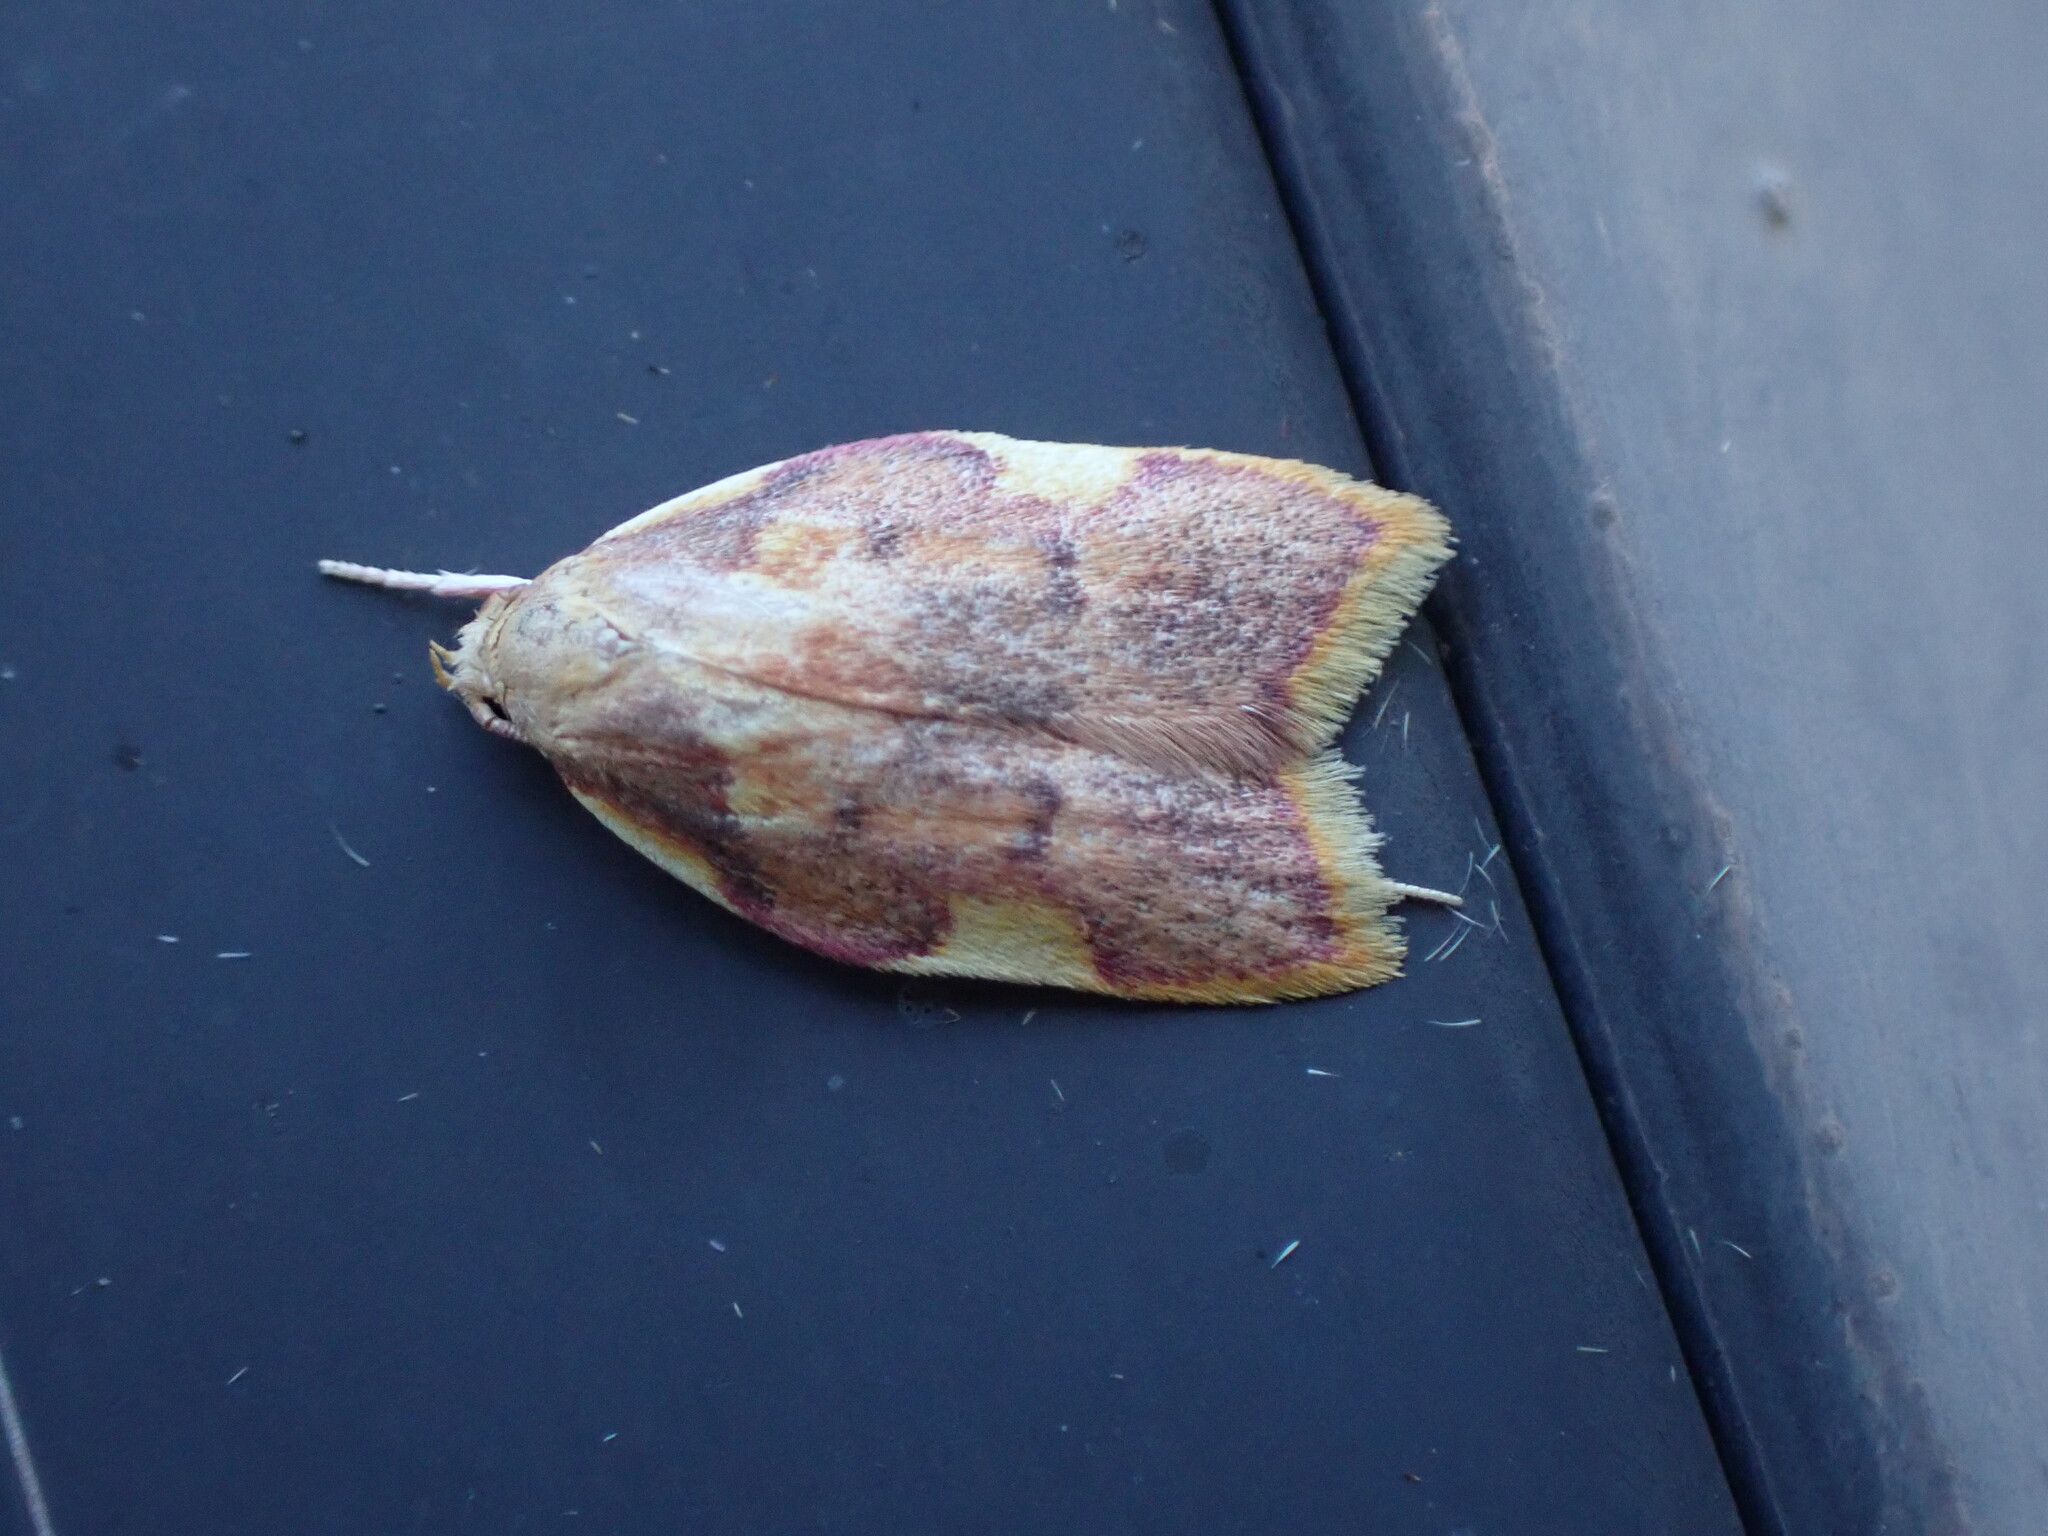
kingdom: Animalia
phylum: Arthropoda
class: Insecta
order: Lepidoptera
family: Peleopodidae
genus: Carcina
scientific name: Carcina quercana
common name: Moth
